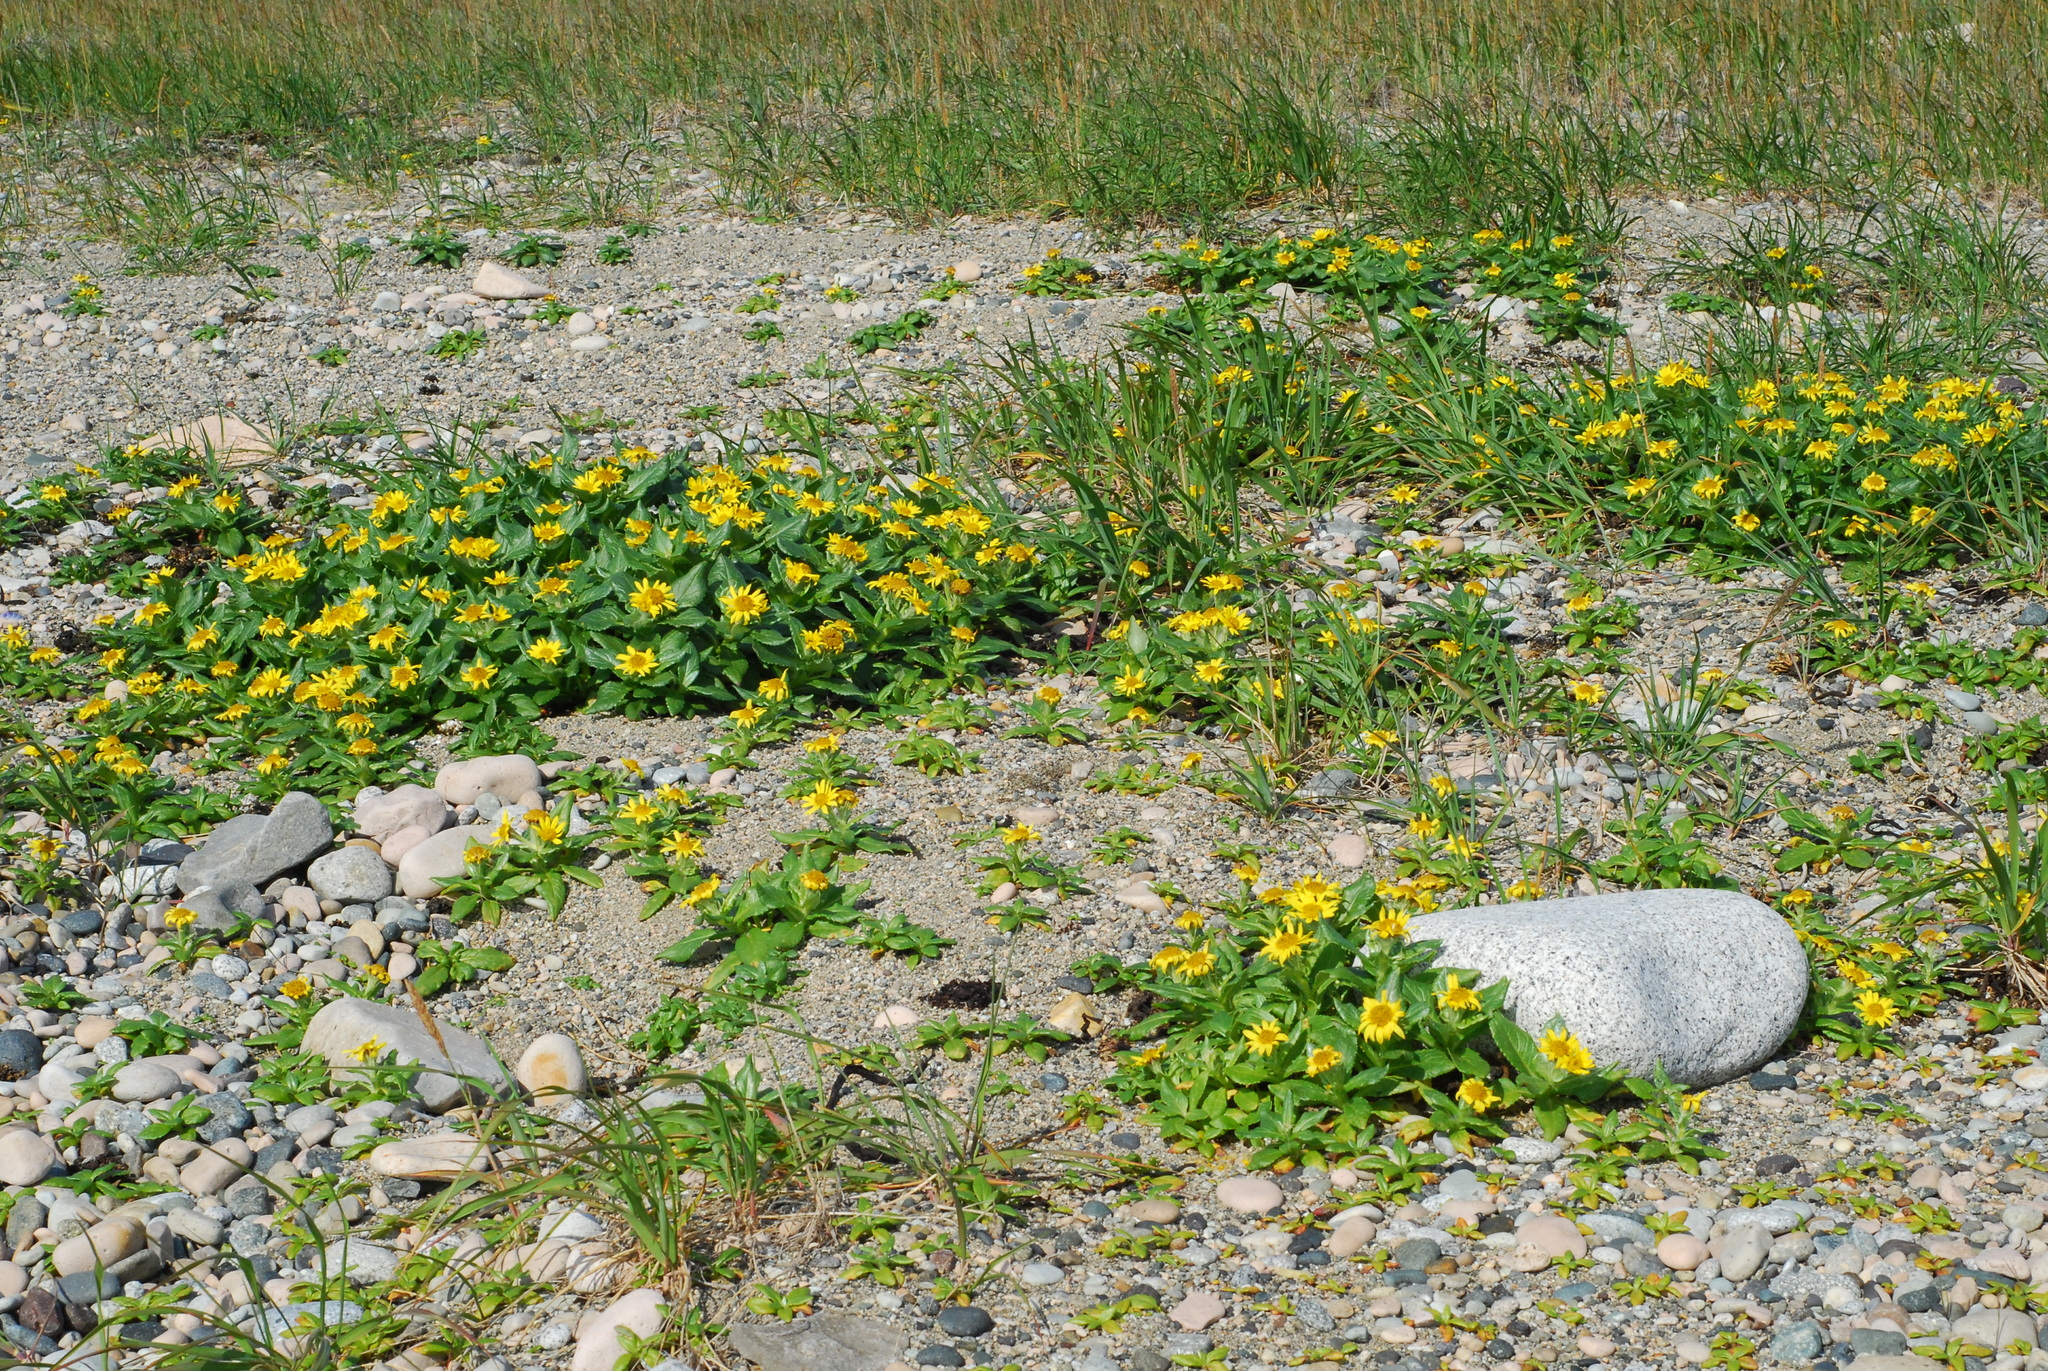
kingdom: Plantae
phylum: Tracheophyta
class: Magnoliopsida
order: Asterales
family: Asteraceae
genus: Jacobaea
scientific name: Jacobaea pseudoarnica
